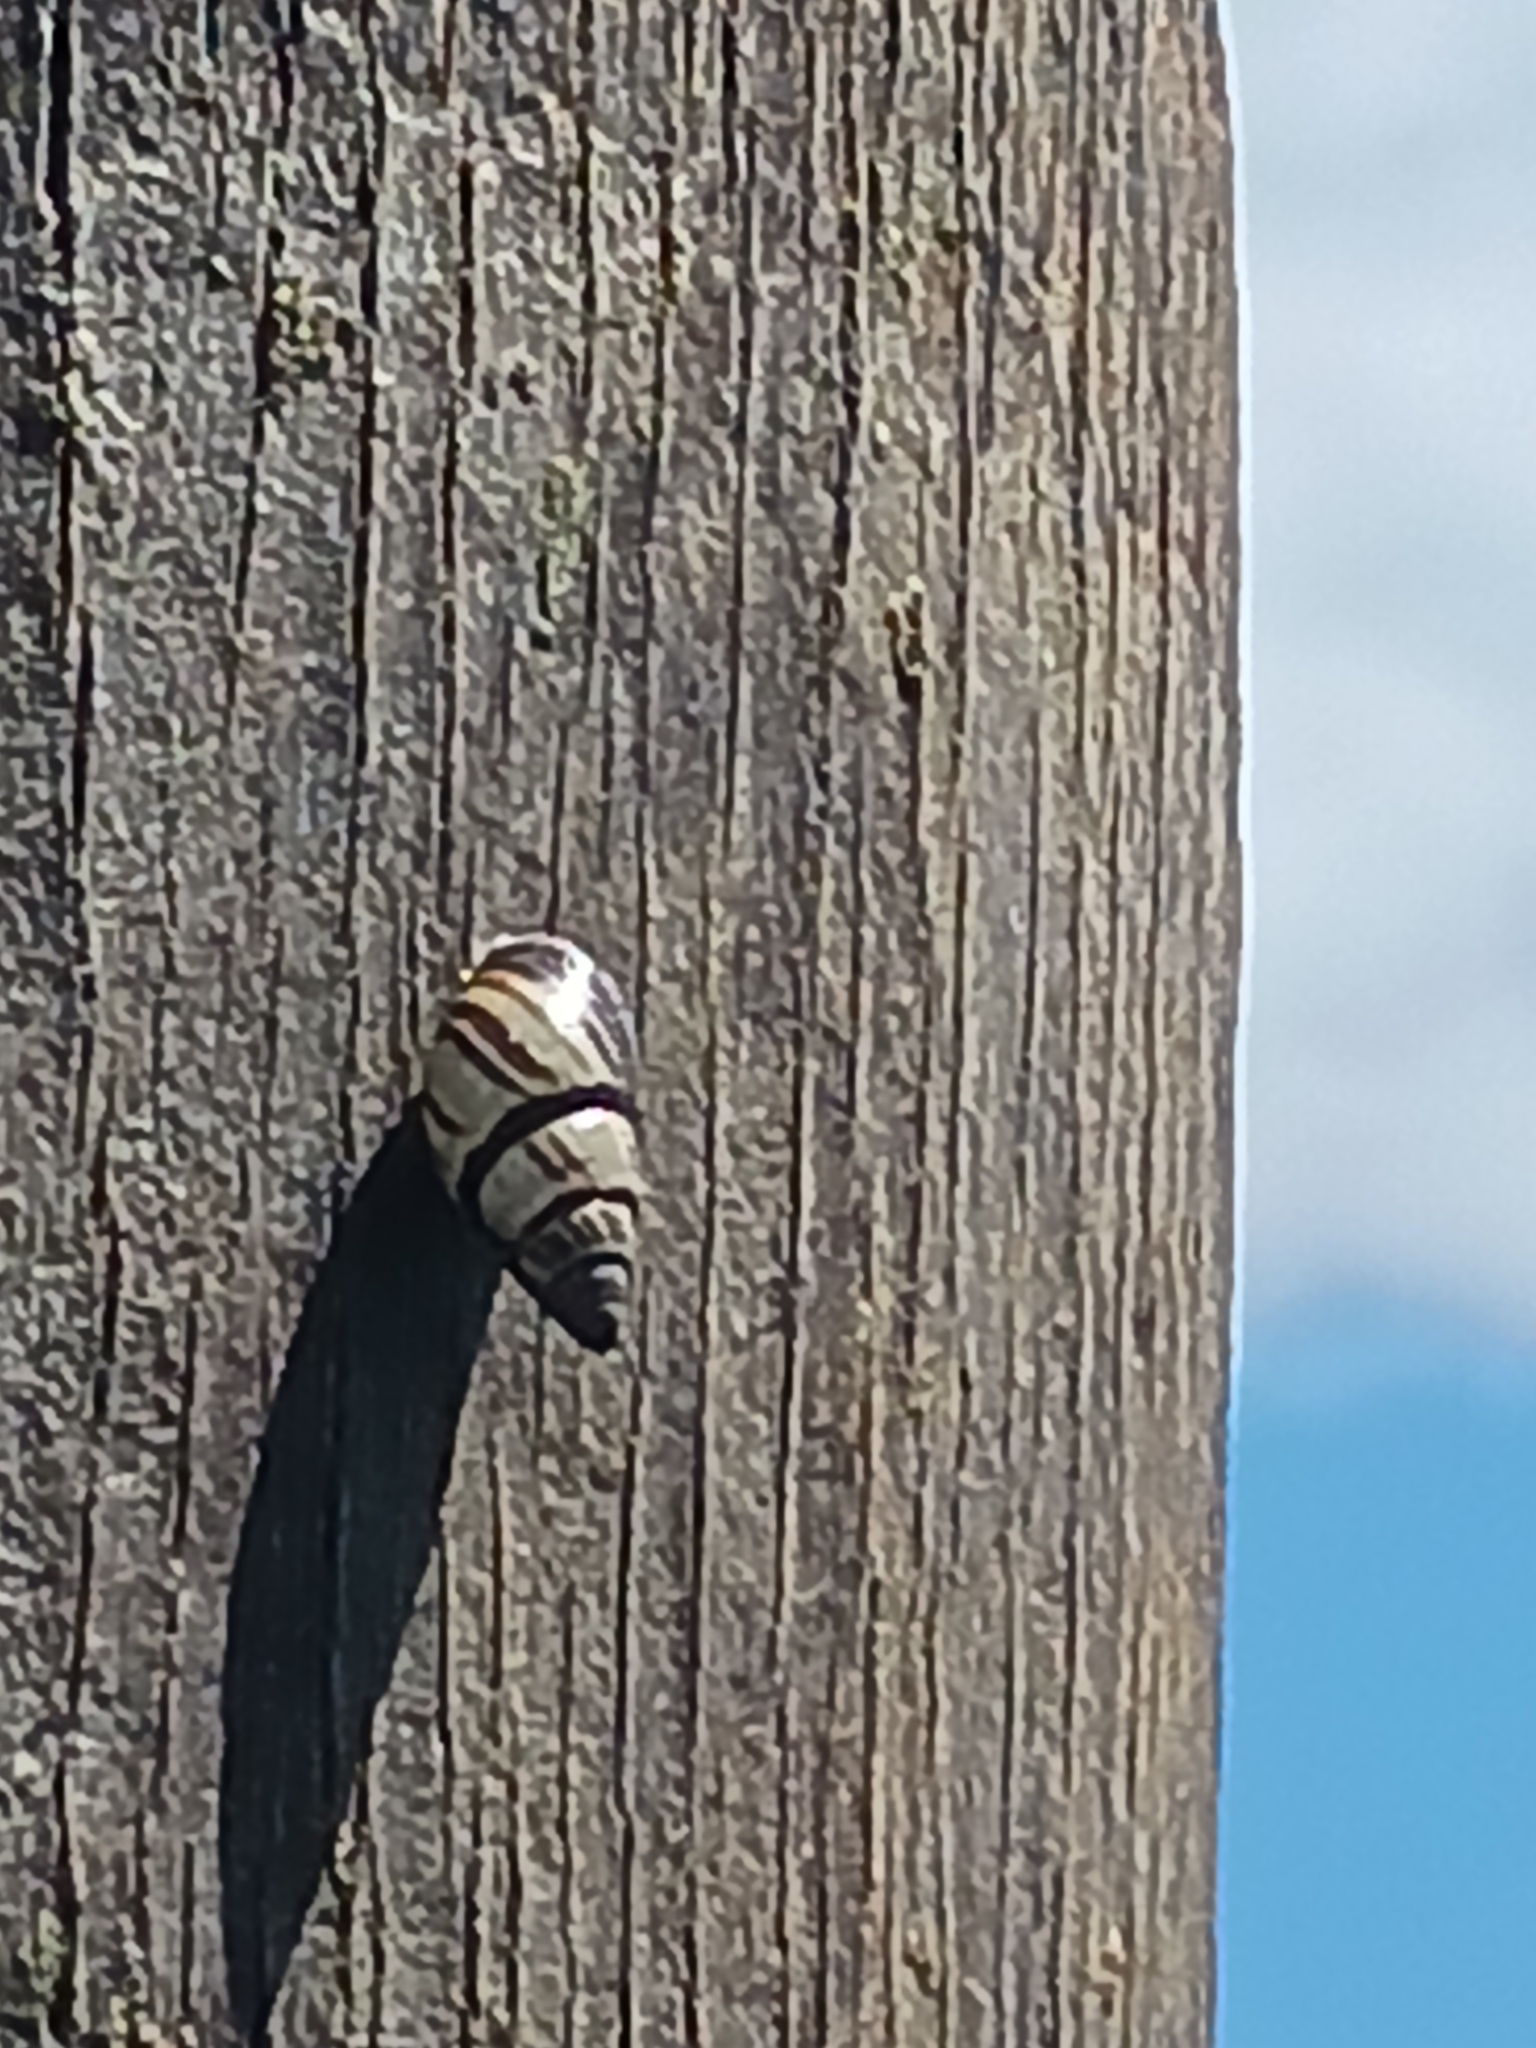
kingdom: Animalia
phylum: Mollusca
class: Gastropoda
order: Stylommatophora
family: Bulimulidae
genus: Drymaeus
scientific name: Drymaeus
